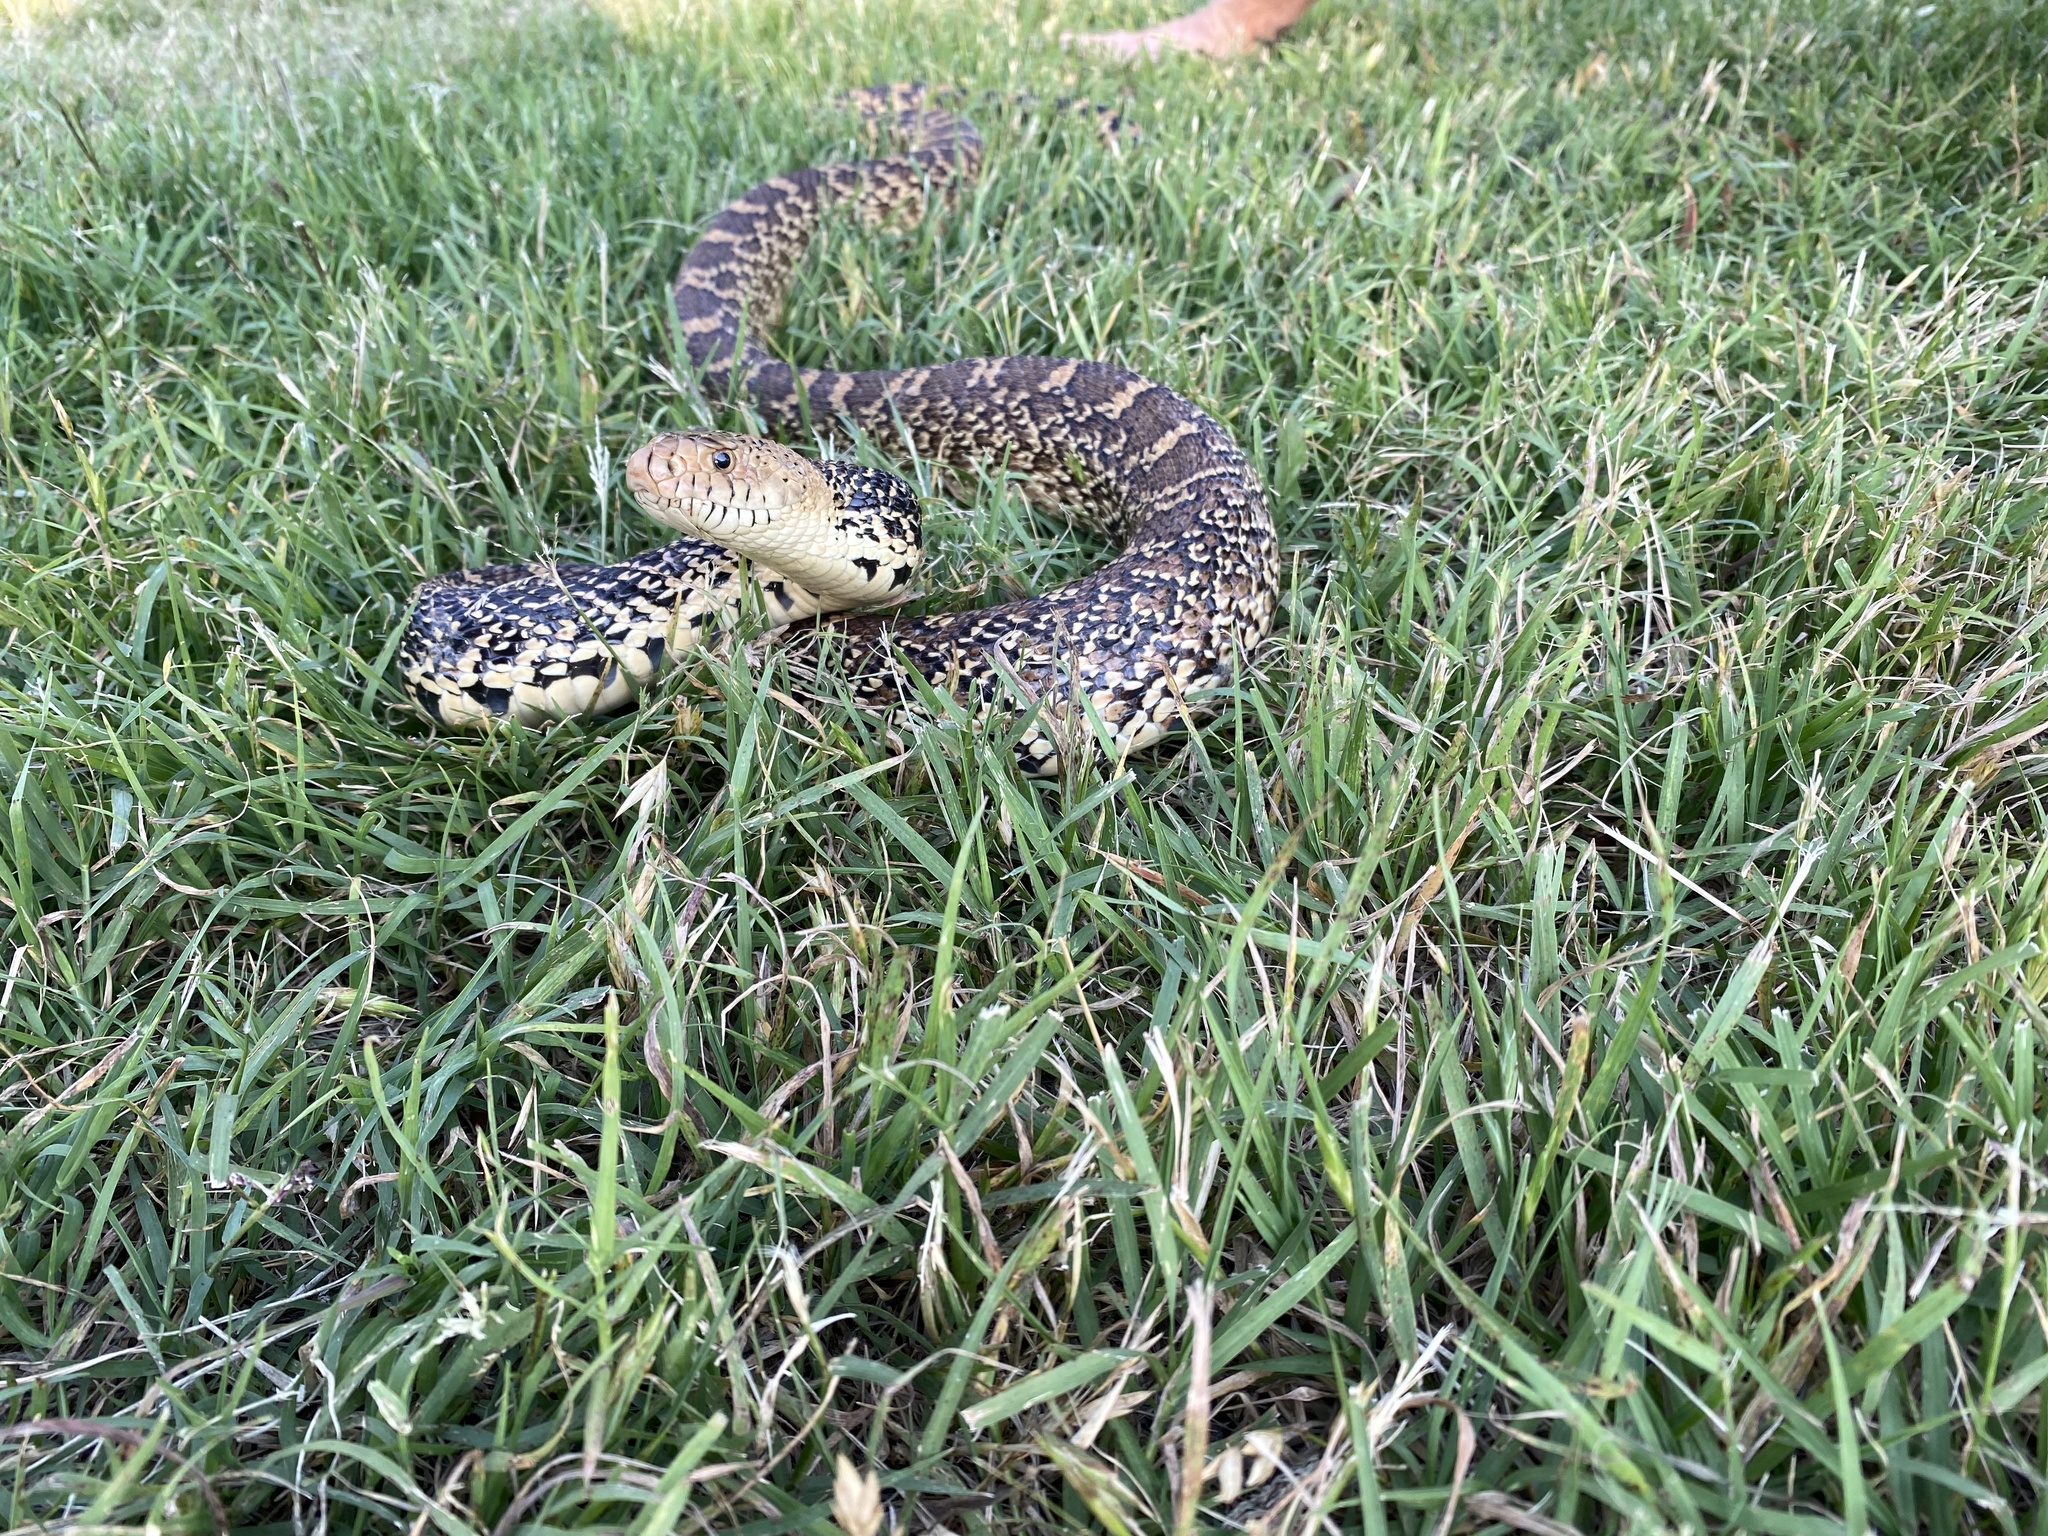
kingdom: Animalia
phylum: Chordata
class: Squamata
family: Colubridae
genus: Pituophis
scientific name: Pituophis catenifer
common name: Gopher snake
